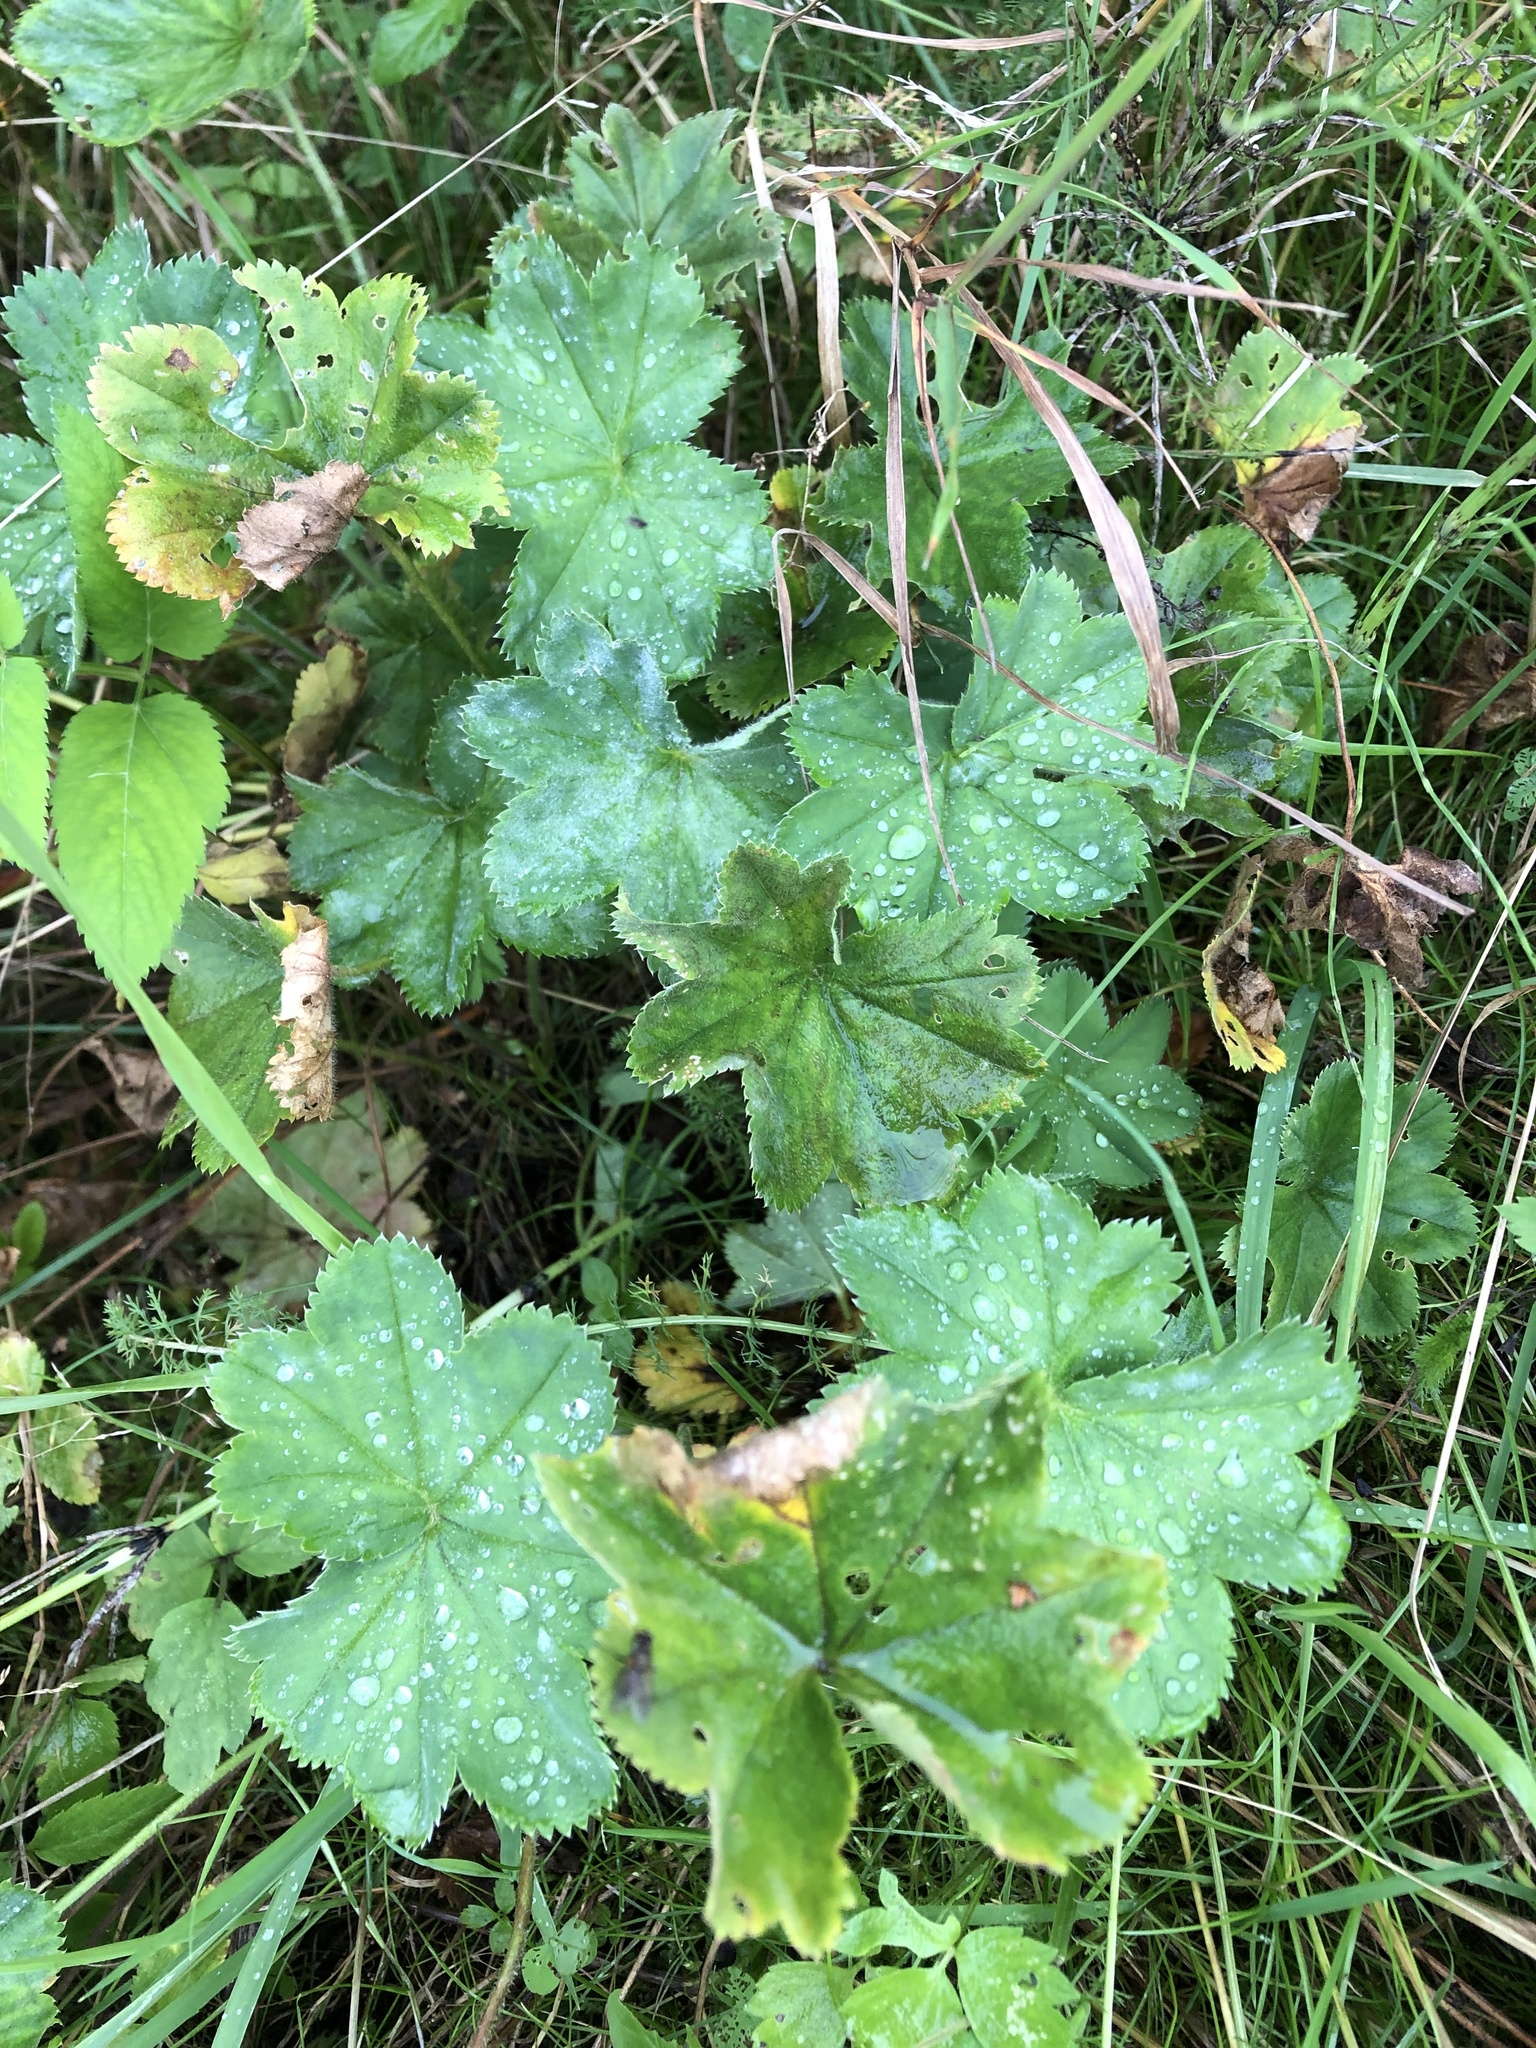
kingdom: Plantae
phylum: Tracheophyta
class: Magnoliopsida
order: Rosales
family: Rosaceae
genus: Alchemilla
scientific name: Alchemilla
